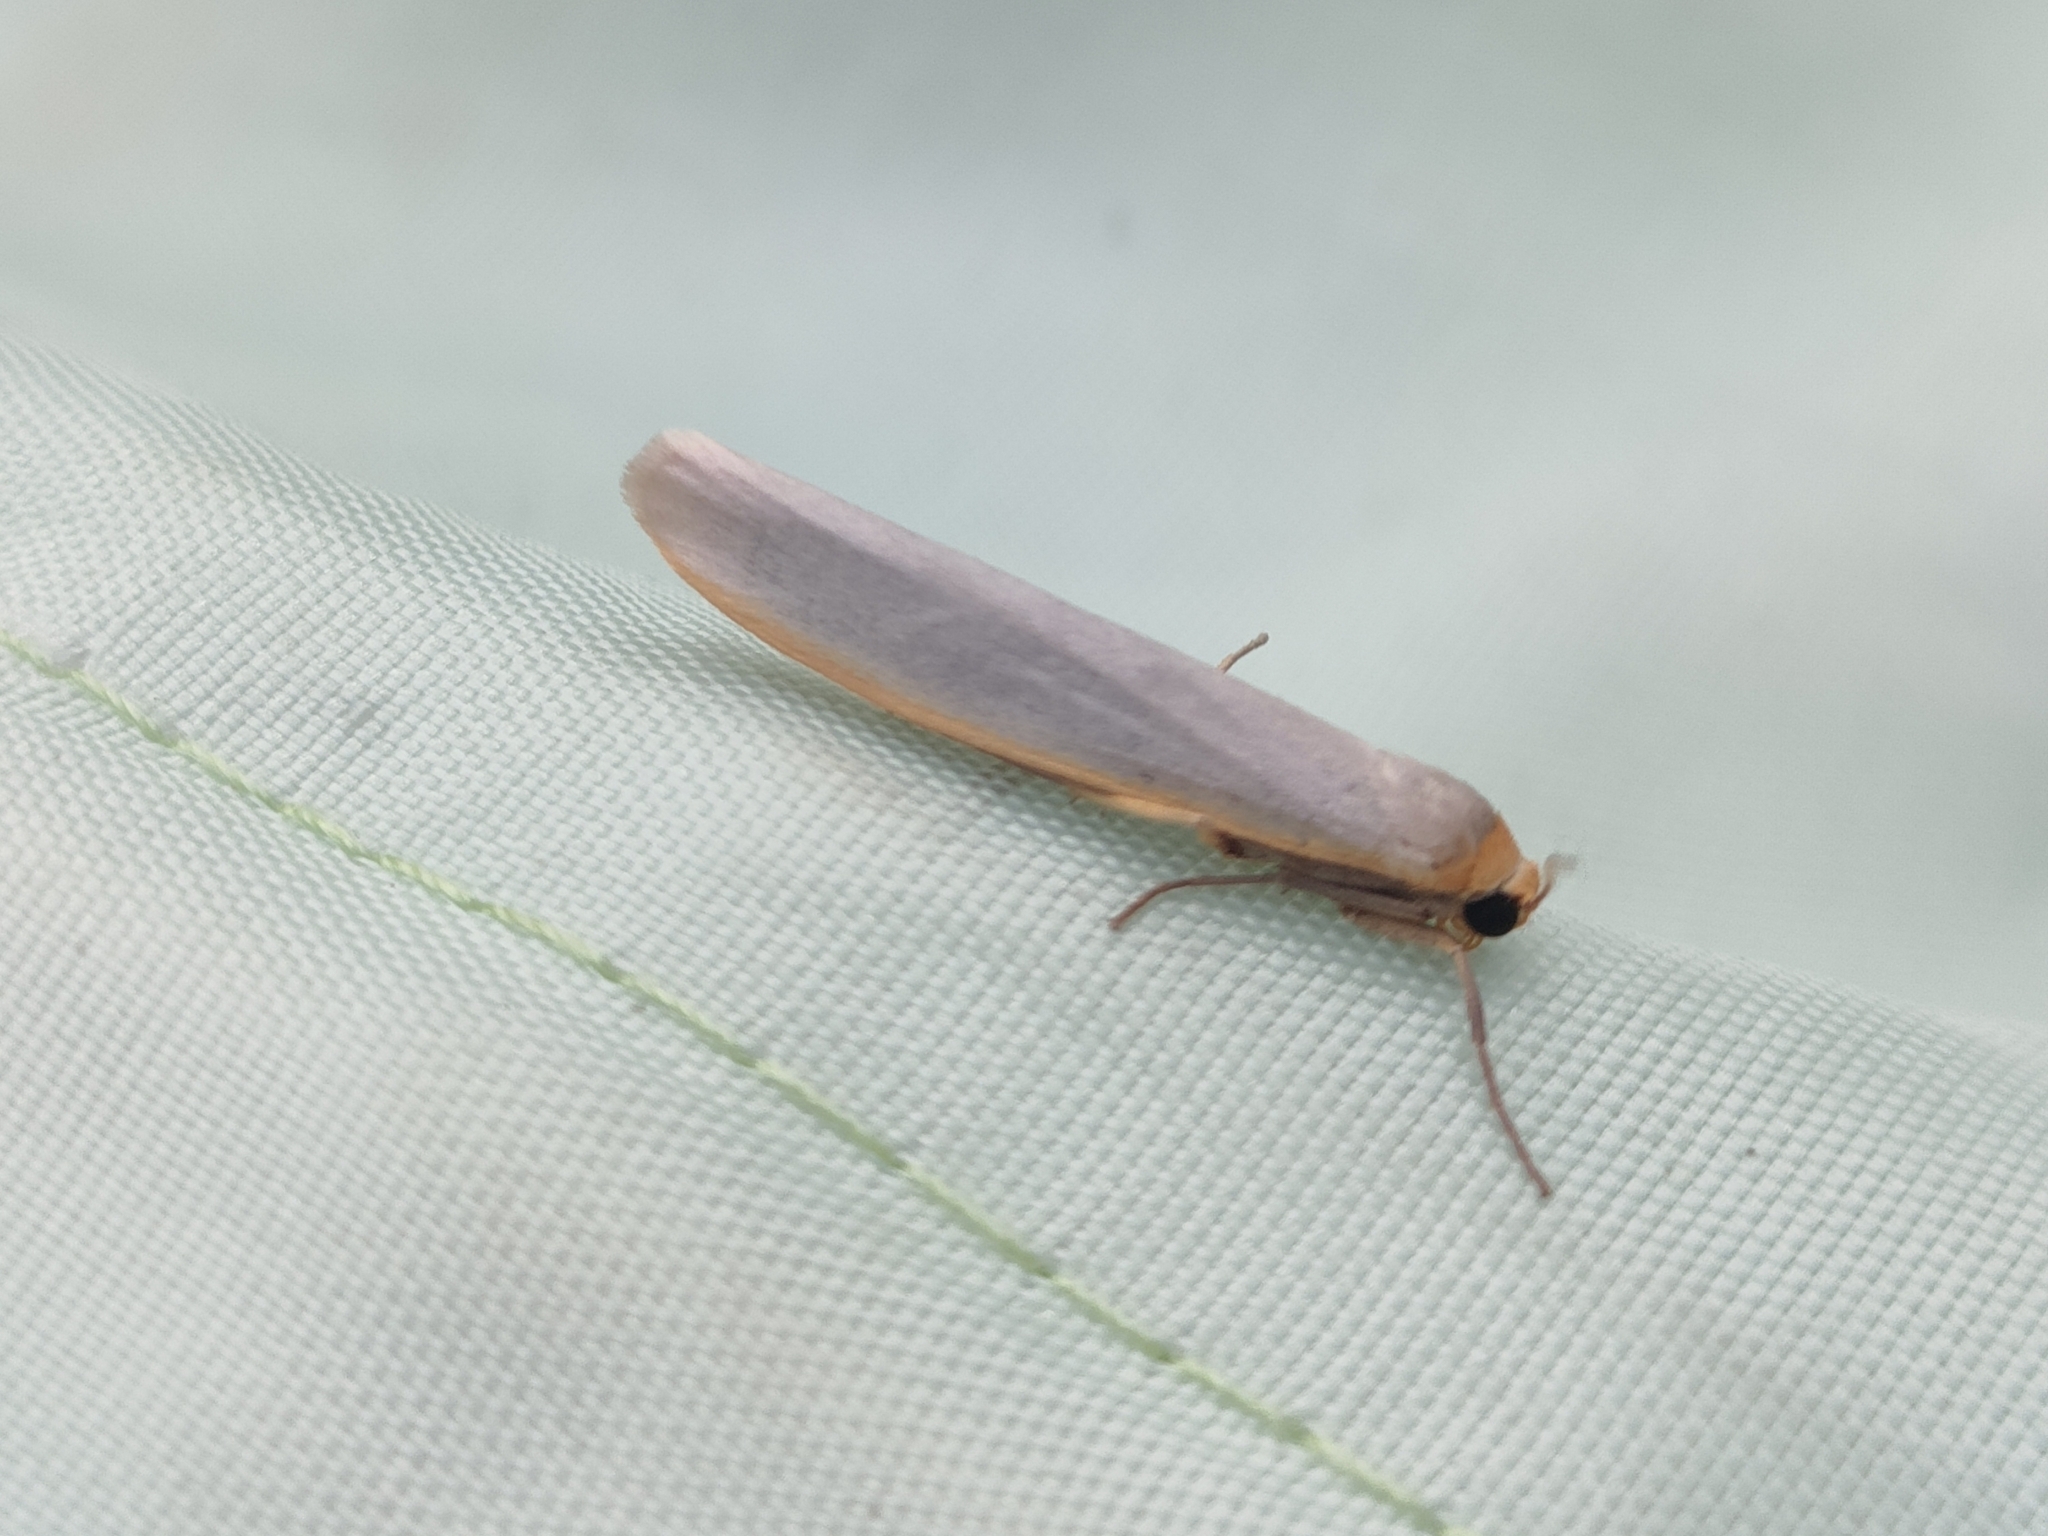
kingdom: Animalia
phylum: Arthropoda
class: Insecta
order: Lepidoptera
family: Erebidae
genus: Eilema
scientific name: Eilema caniola
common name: Hoary footman
